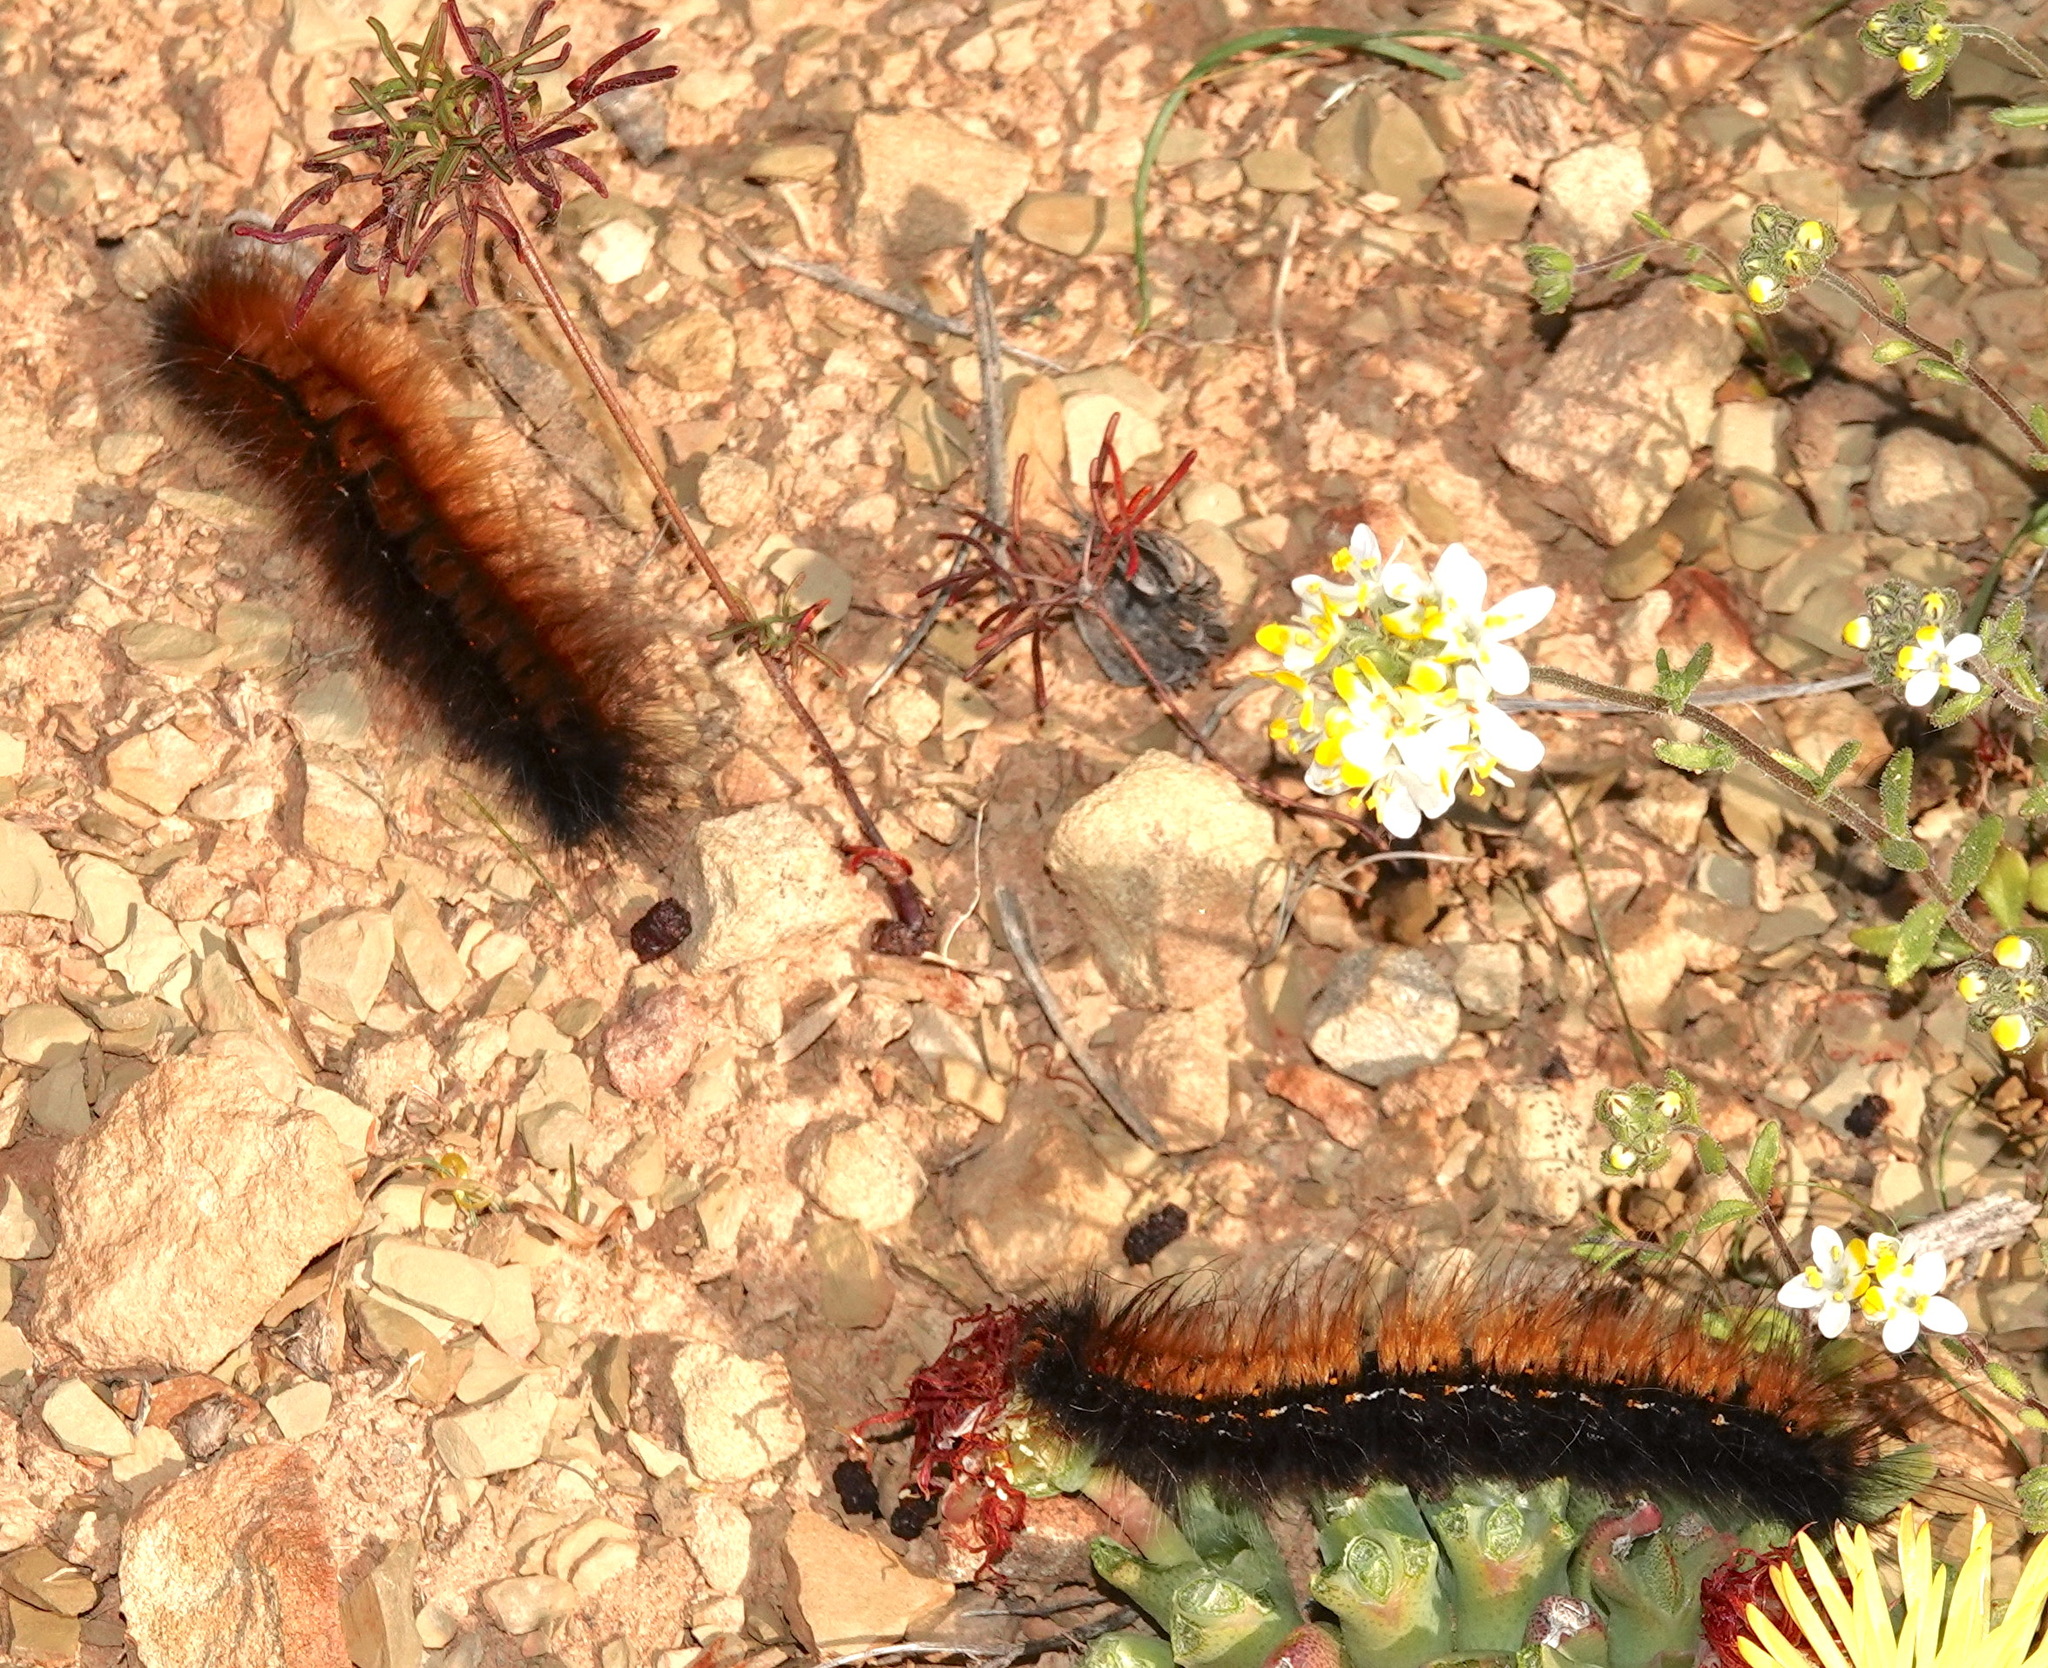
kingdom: Animalia
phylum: Arthropoda
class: Insecta
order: Lepidoptera
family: Lasiocampidae
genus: Mesocelis
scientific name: Mesocelis monticola
